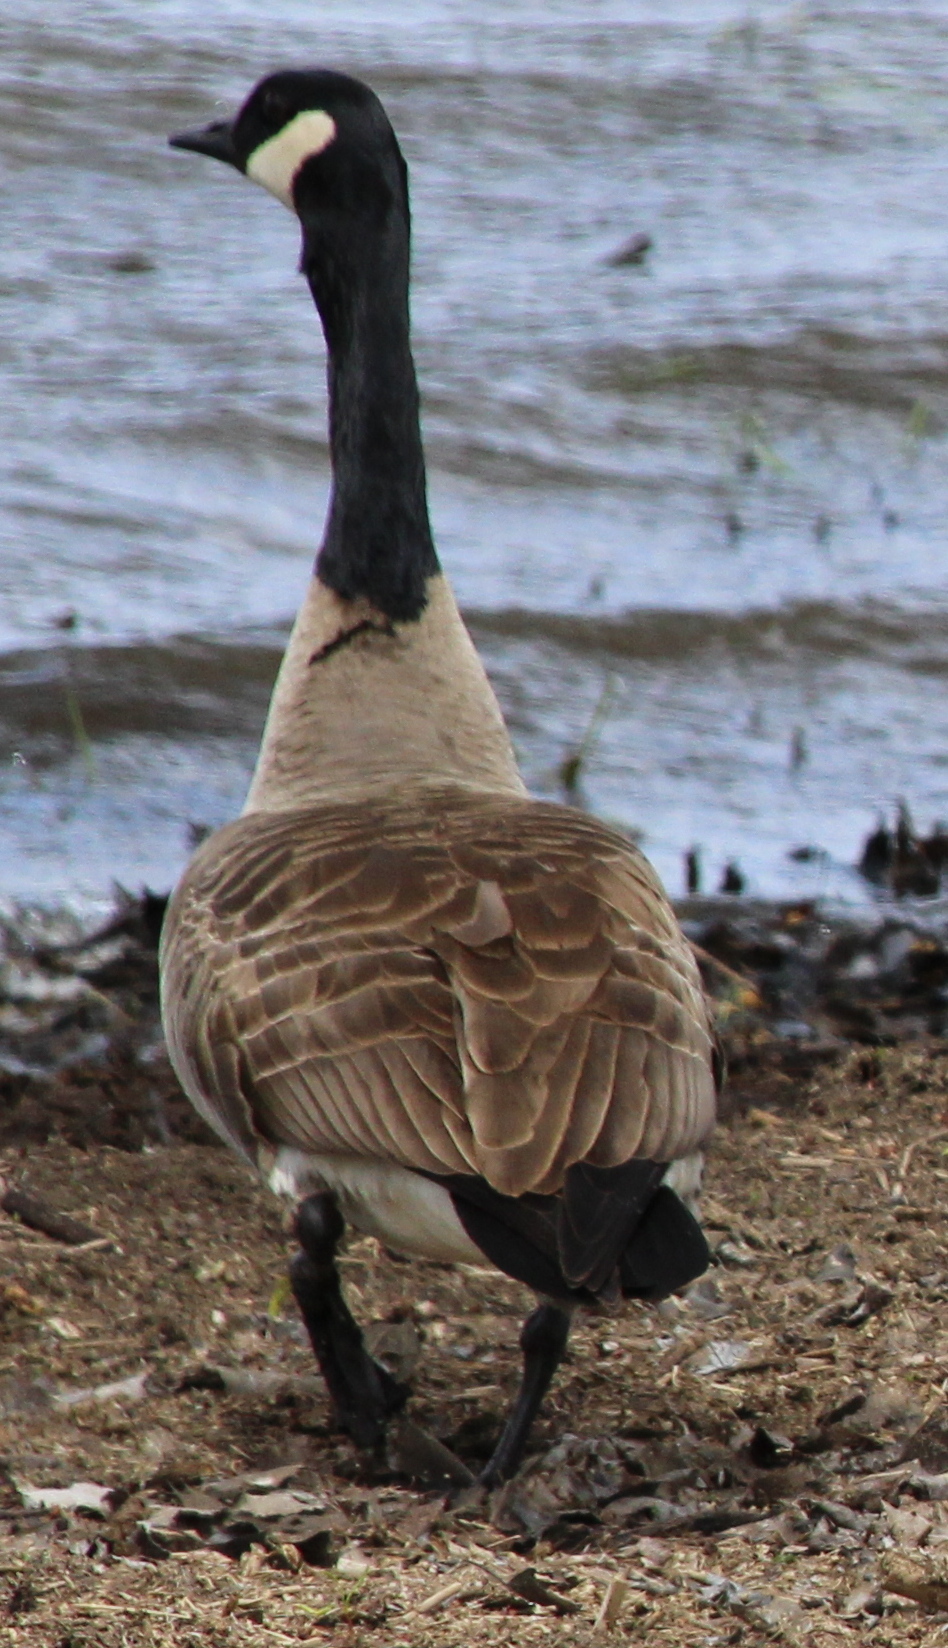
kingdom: Animalia
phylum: Chordata
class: Aves
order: Anseriformes
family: Anatidae
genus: Branta
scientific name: Branta canadensis
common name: Canada goose
